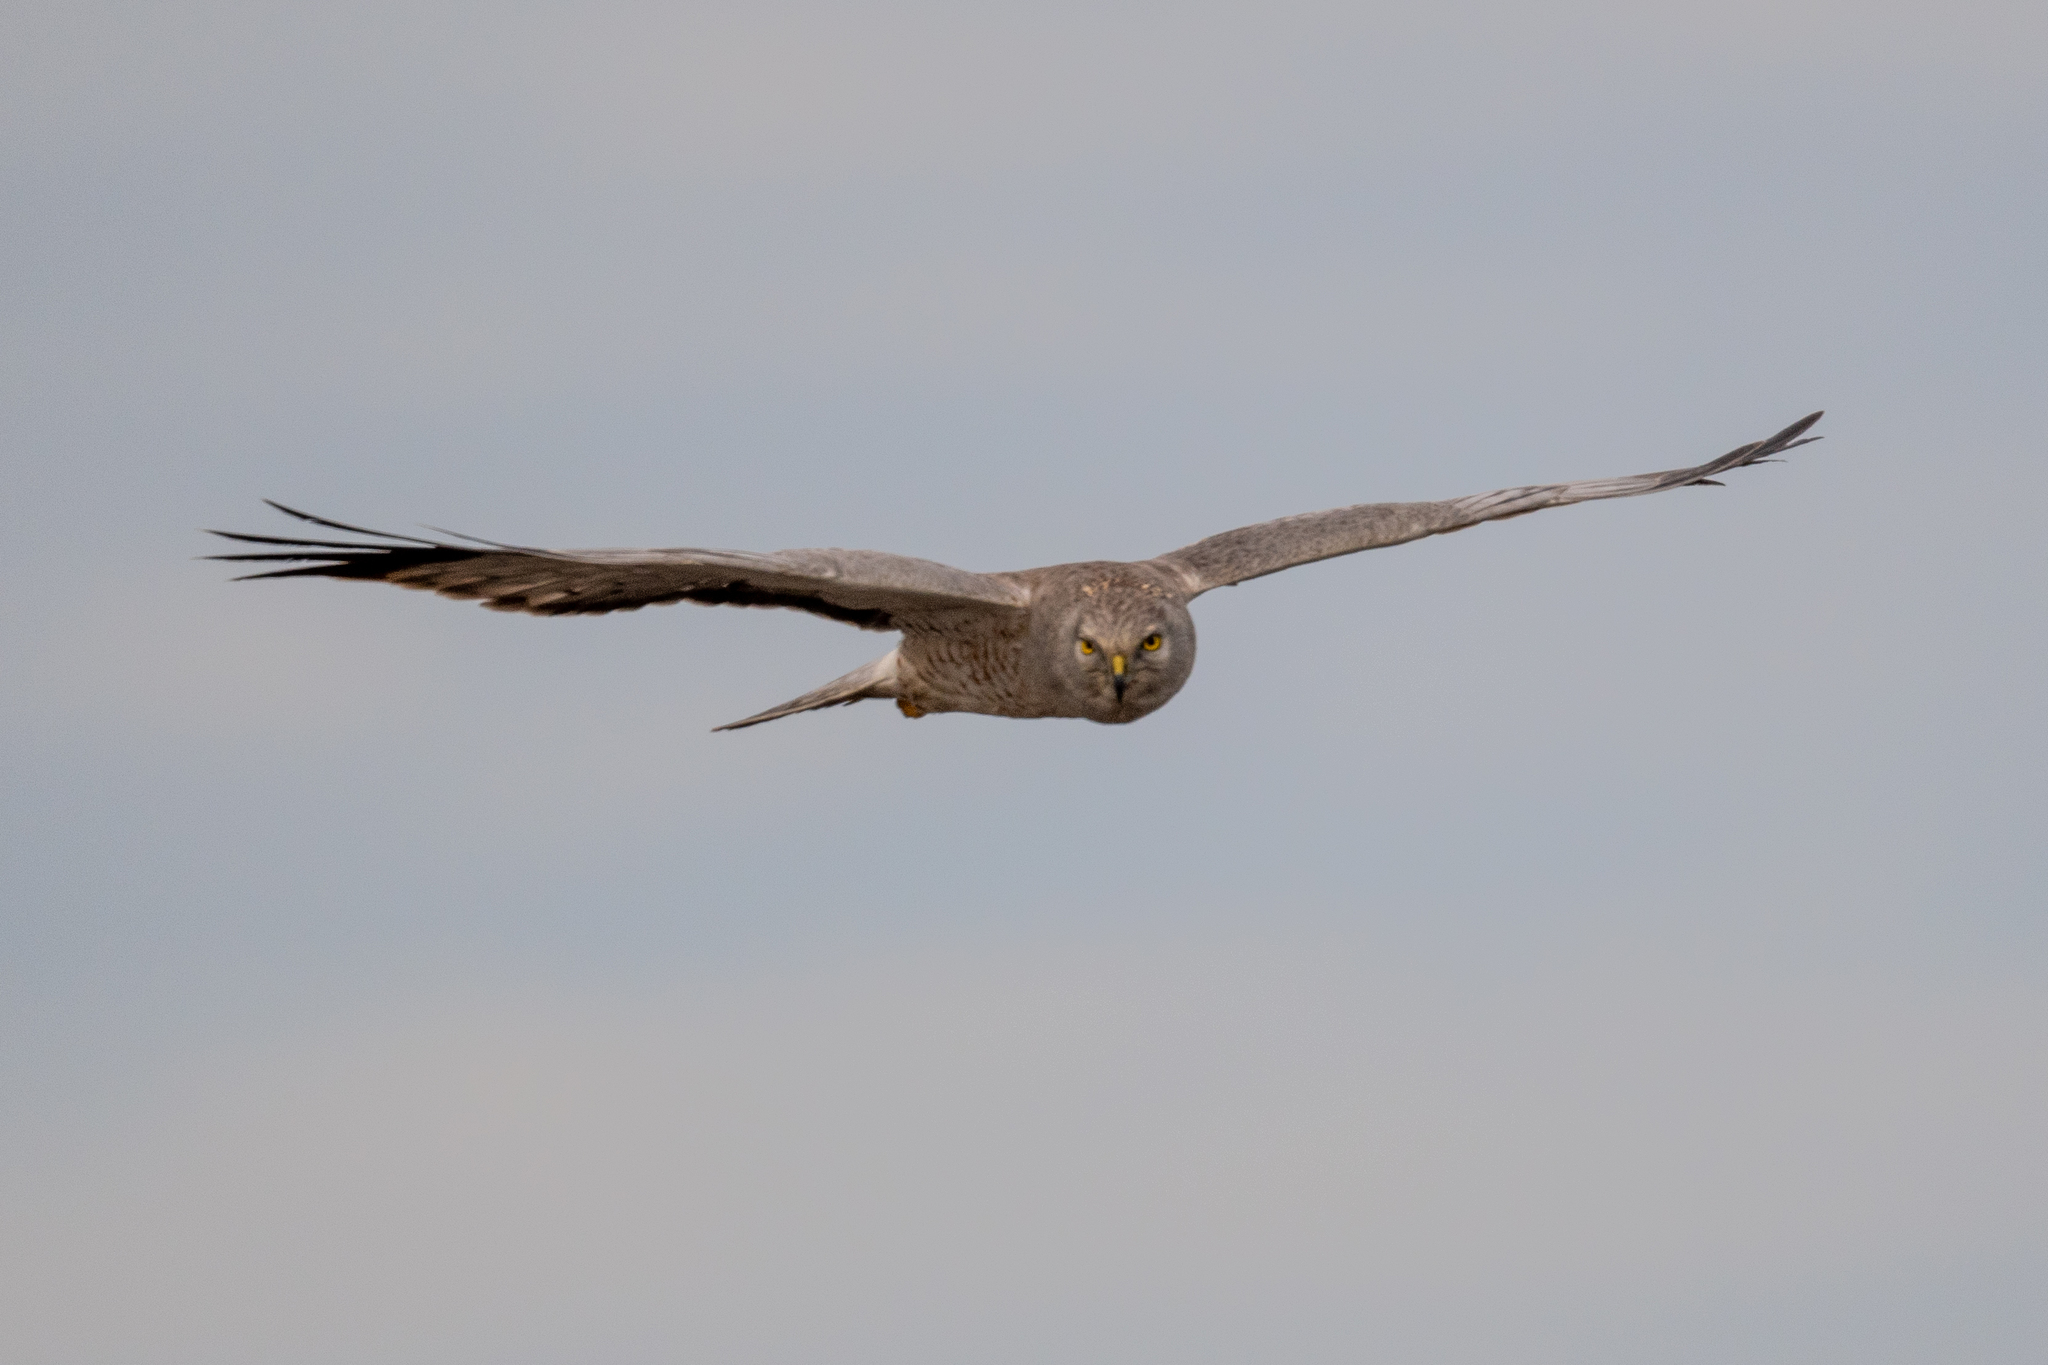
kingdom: Animalia
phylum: Chordata
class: Aves
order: Accipitriformes
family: Accipitridae
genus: Circus
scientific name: Circus cyaneus
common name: Hen harrier
